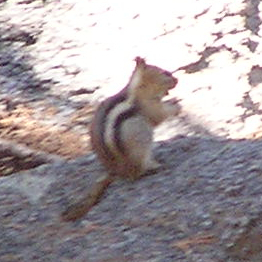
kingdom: Animalia
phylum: Chordata
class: Mammalia
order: Rodentia
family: Sciuridae
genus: Callospermophilus
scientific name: Callospermophilus lateralis
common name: Golden-mantled ground squirrel
